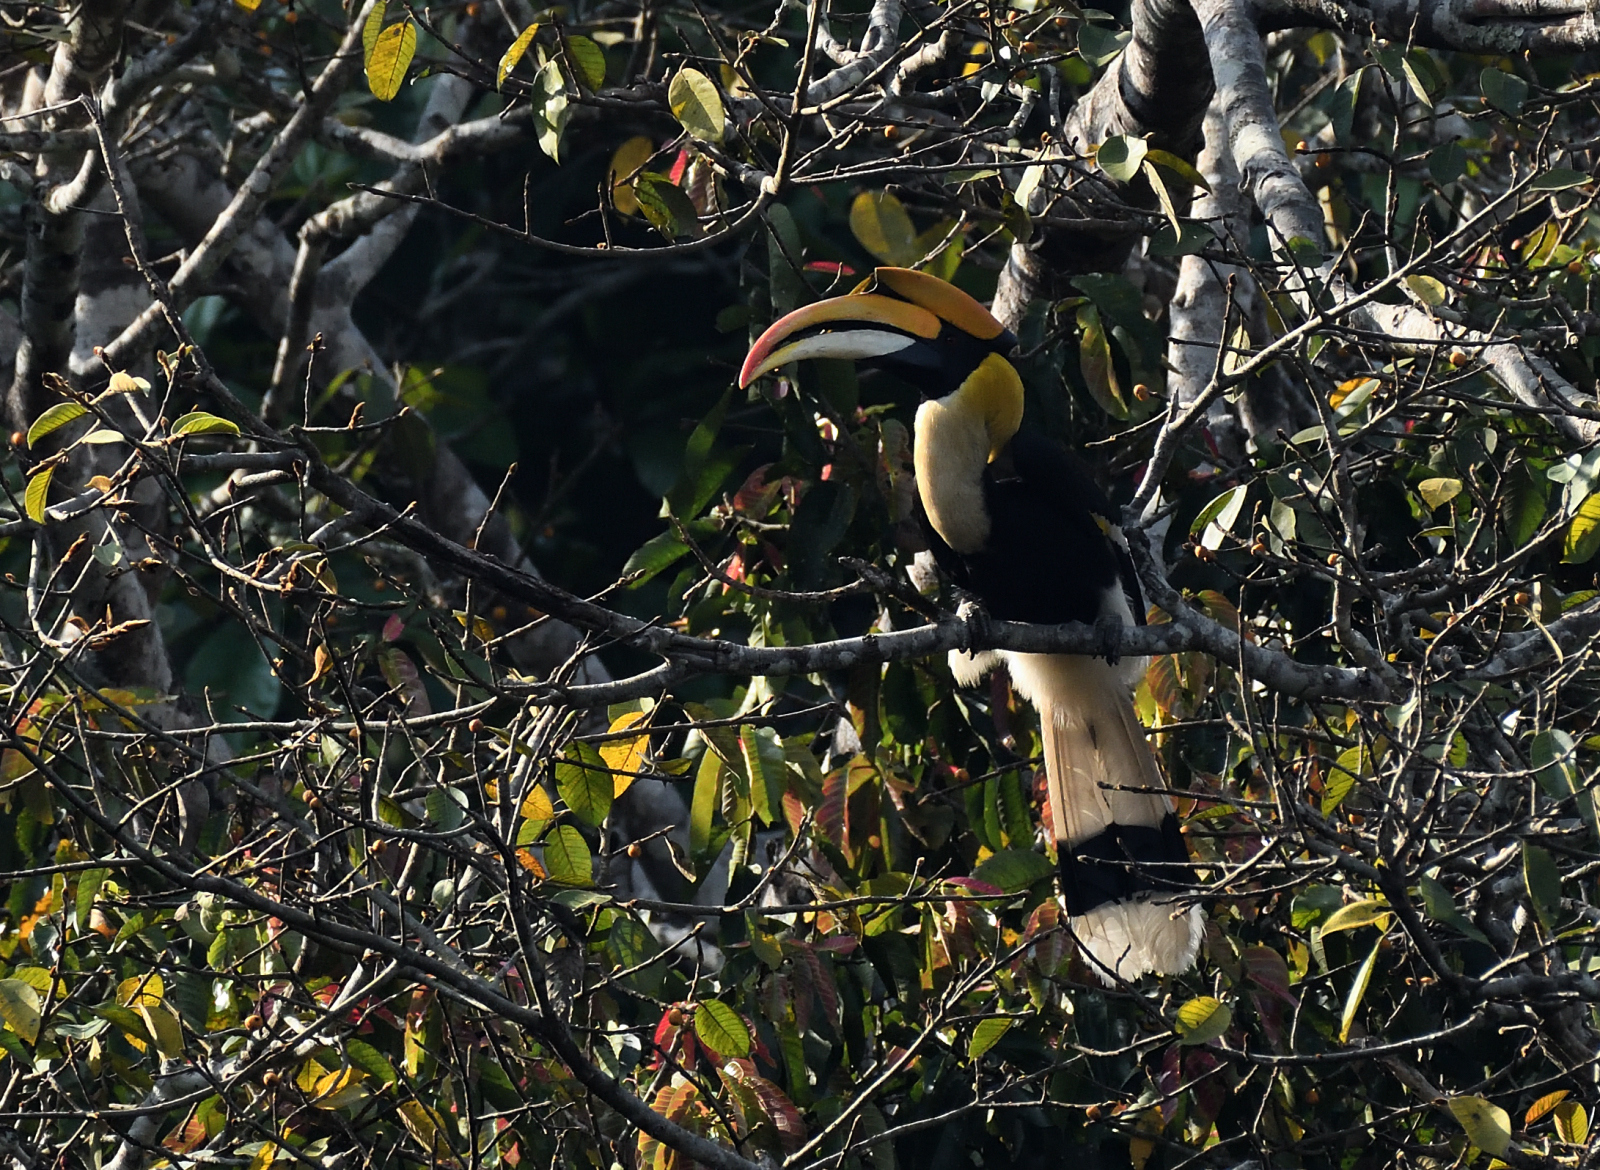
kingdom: Animalia
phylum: Chordata
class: Aves
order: Bucerotiformes
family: Bucerotidae
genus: Buceros
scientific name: Buceros bicornis
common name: Great hornbill
